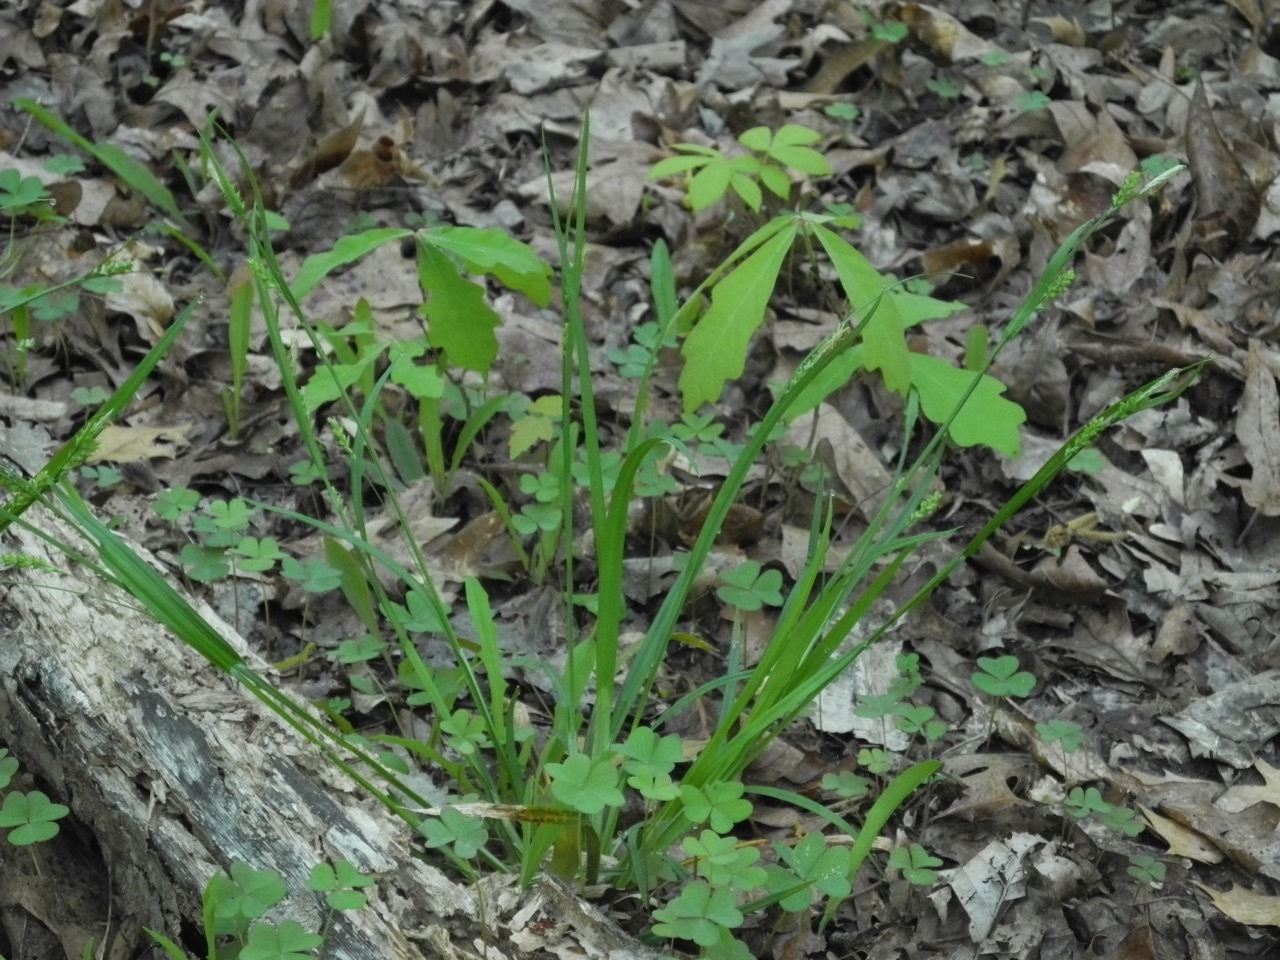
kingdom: Plantae
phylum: Tracheophyta
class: Liliopsida
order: Poales
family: Cyperaceae
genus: Carex
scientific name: Carex blanda
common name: Bland sedge
